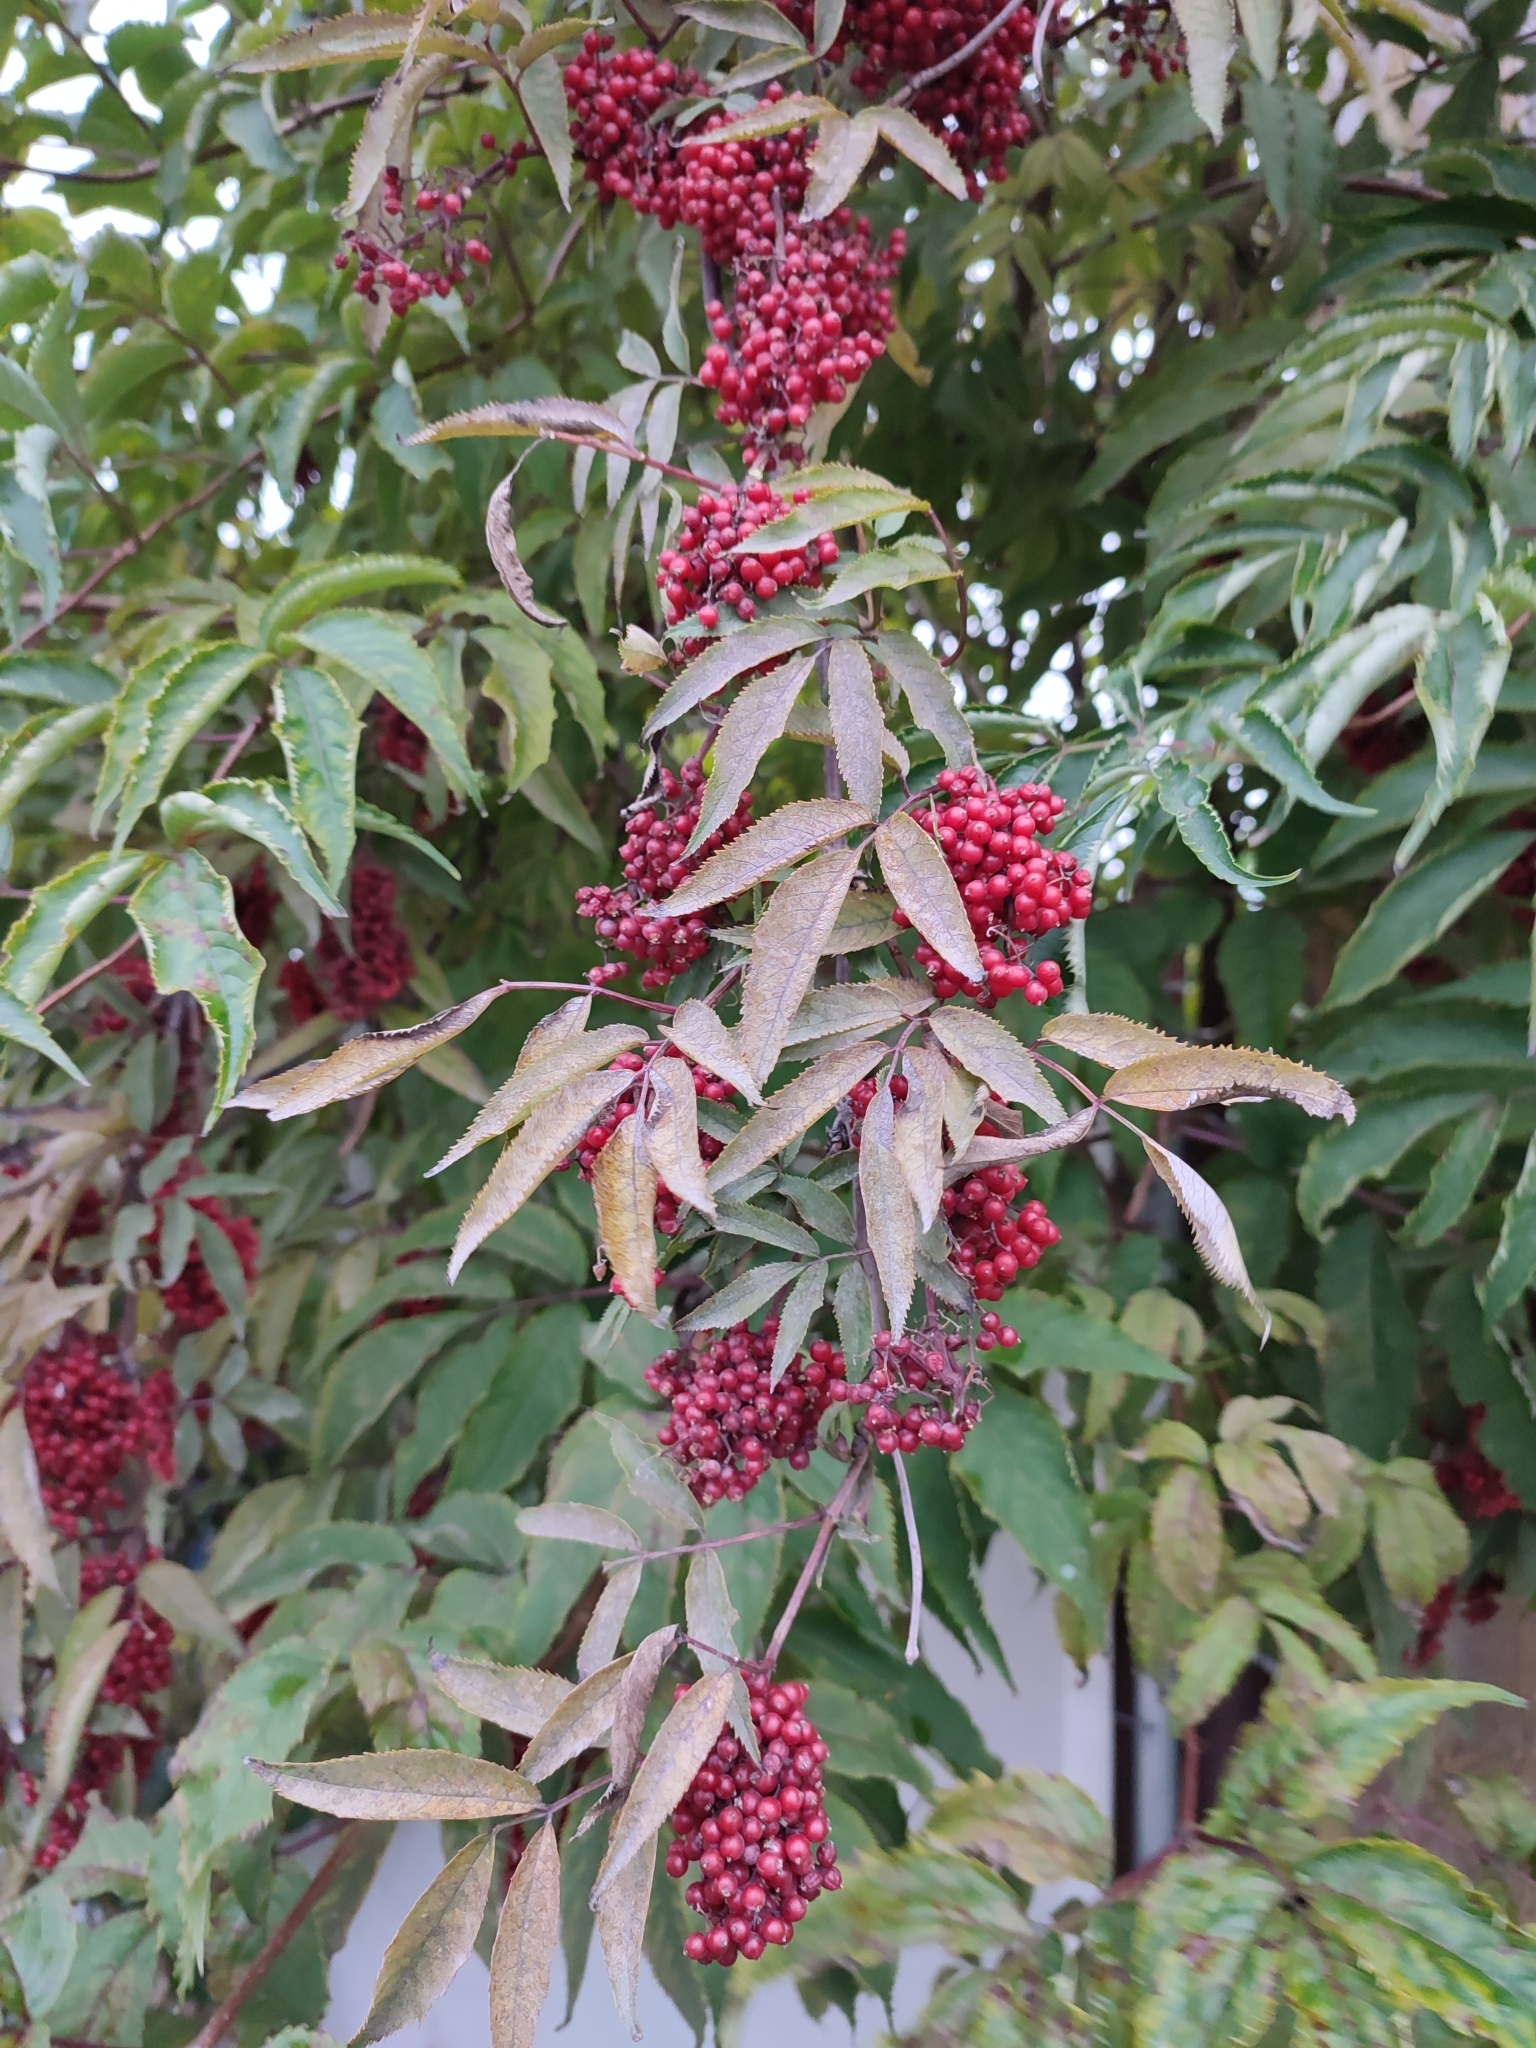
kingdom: Plantae
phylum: Tracheophyta
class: Magnoliopsida
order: Dipsacales
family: Viburnaceae
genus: Sambucus
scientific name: Sambucus racemosa
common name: Red-berried elder
